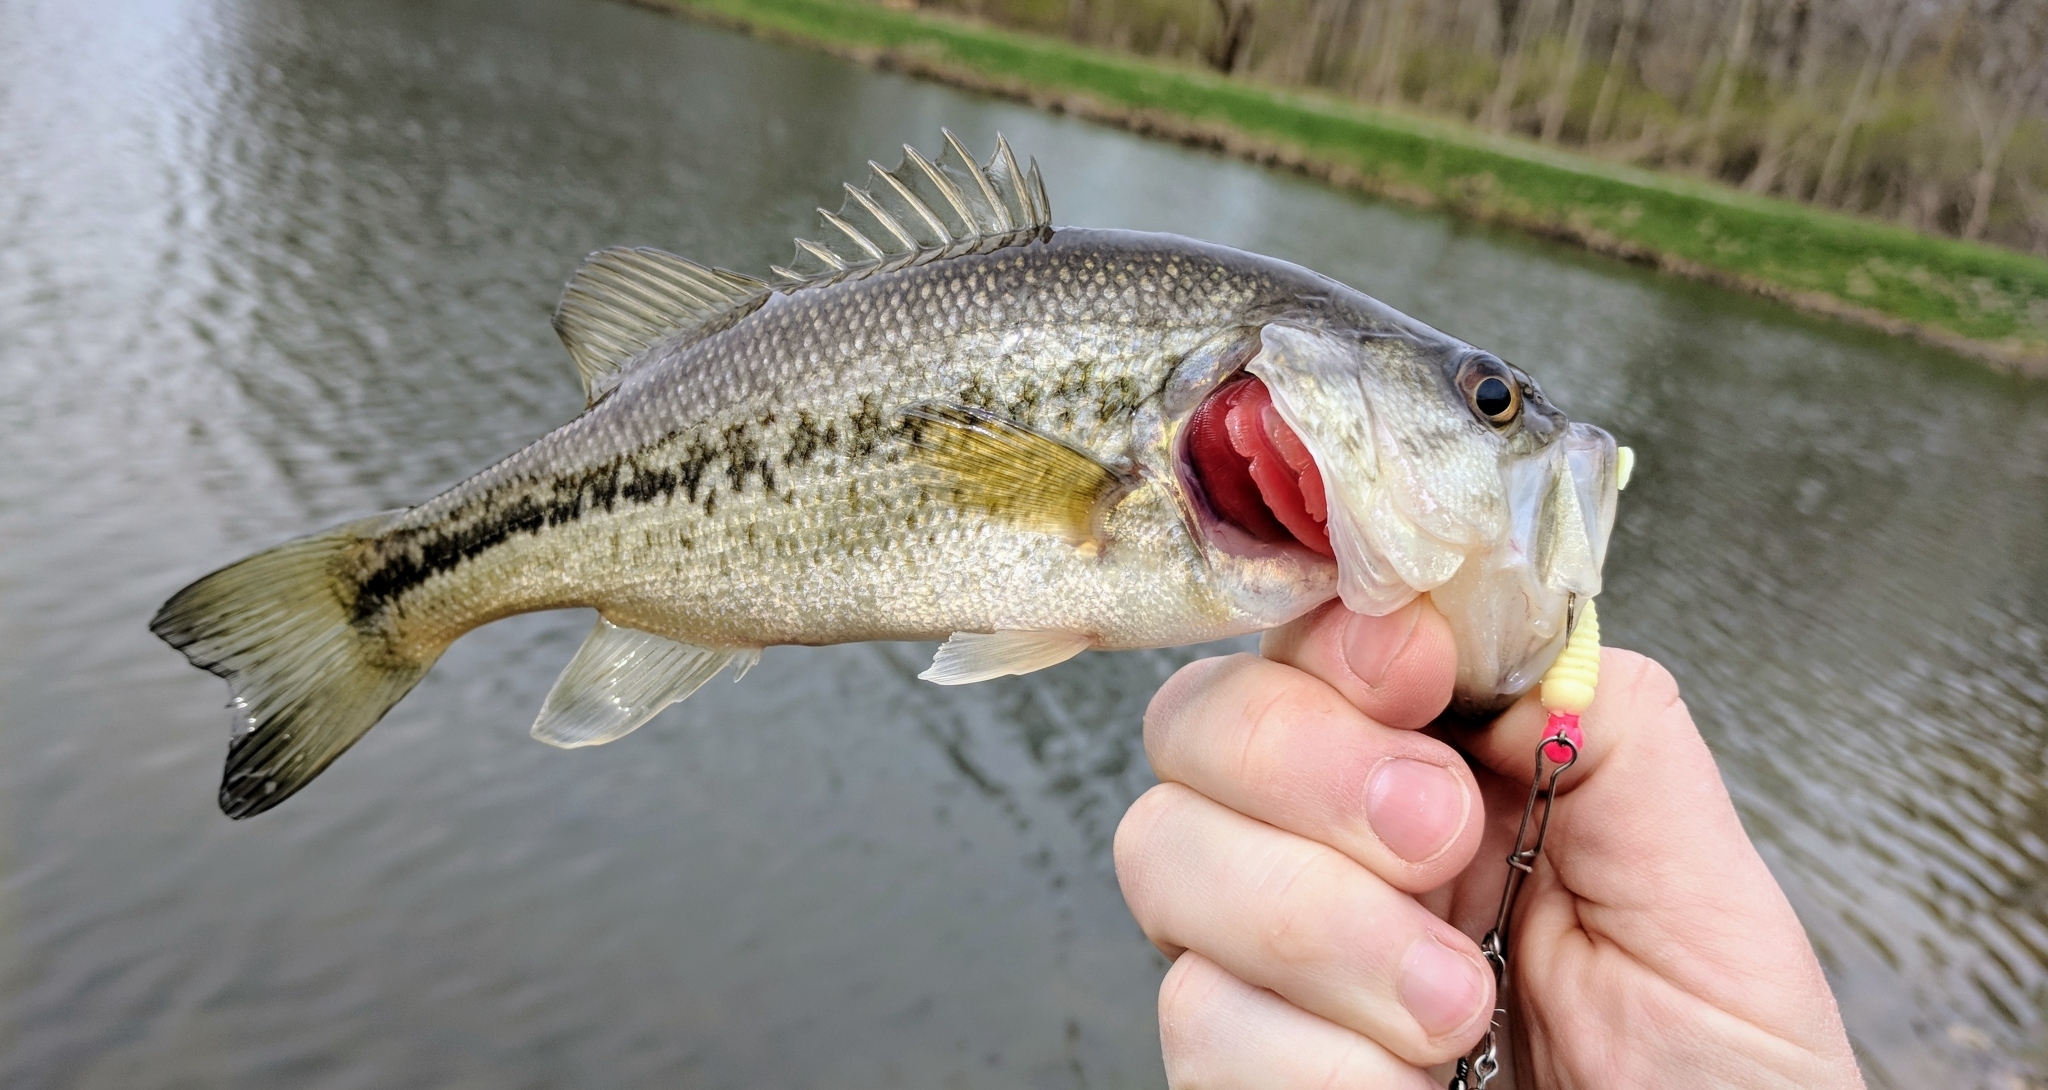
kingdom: Animalia
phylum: Chordata
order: Perciformes
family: Centrarchidae
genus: Micropterus
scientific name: Micropterus
